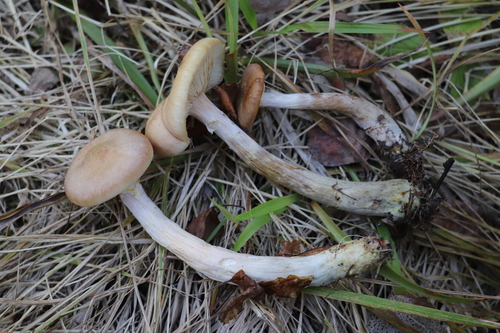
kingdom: Fungi
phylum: Basidiomycota
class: Agaricomycetes
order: Agaricales
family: Physalacriaceae
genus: Armillaria
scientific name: Armillaria cepistipes
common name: Mullet honey fungus
